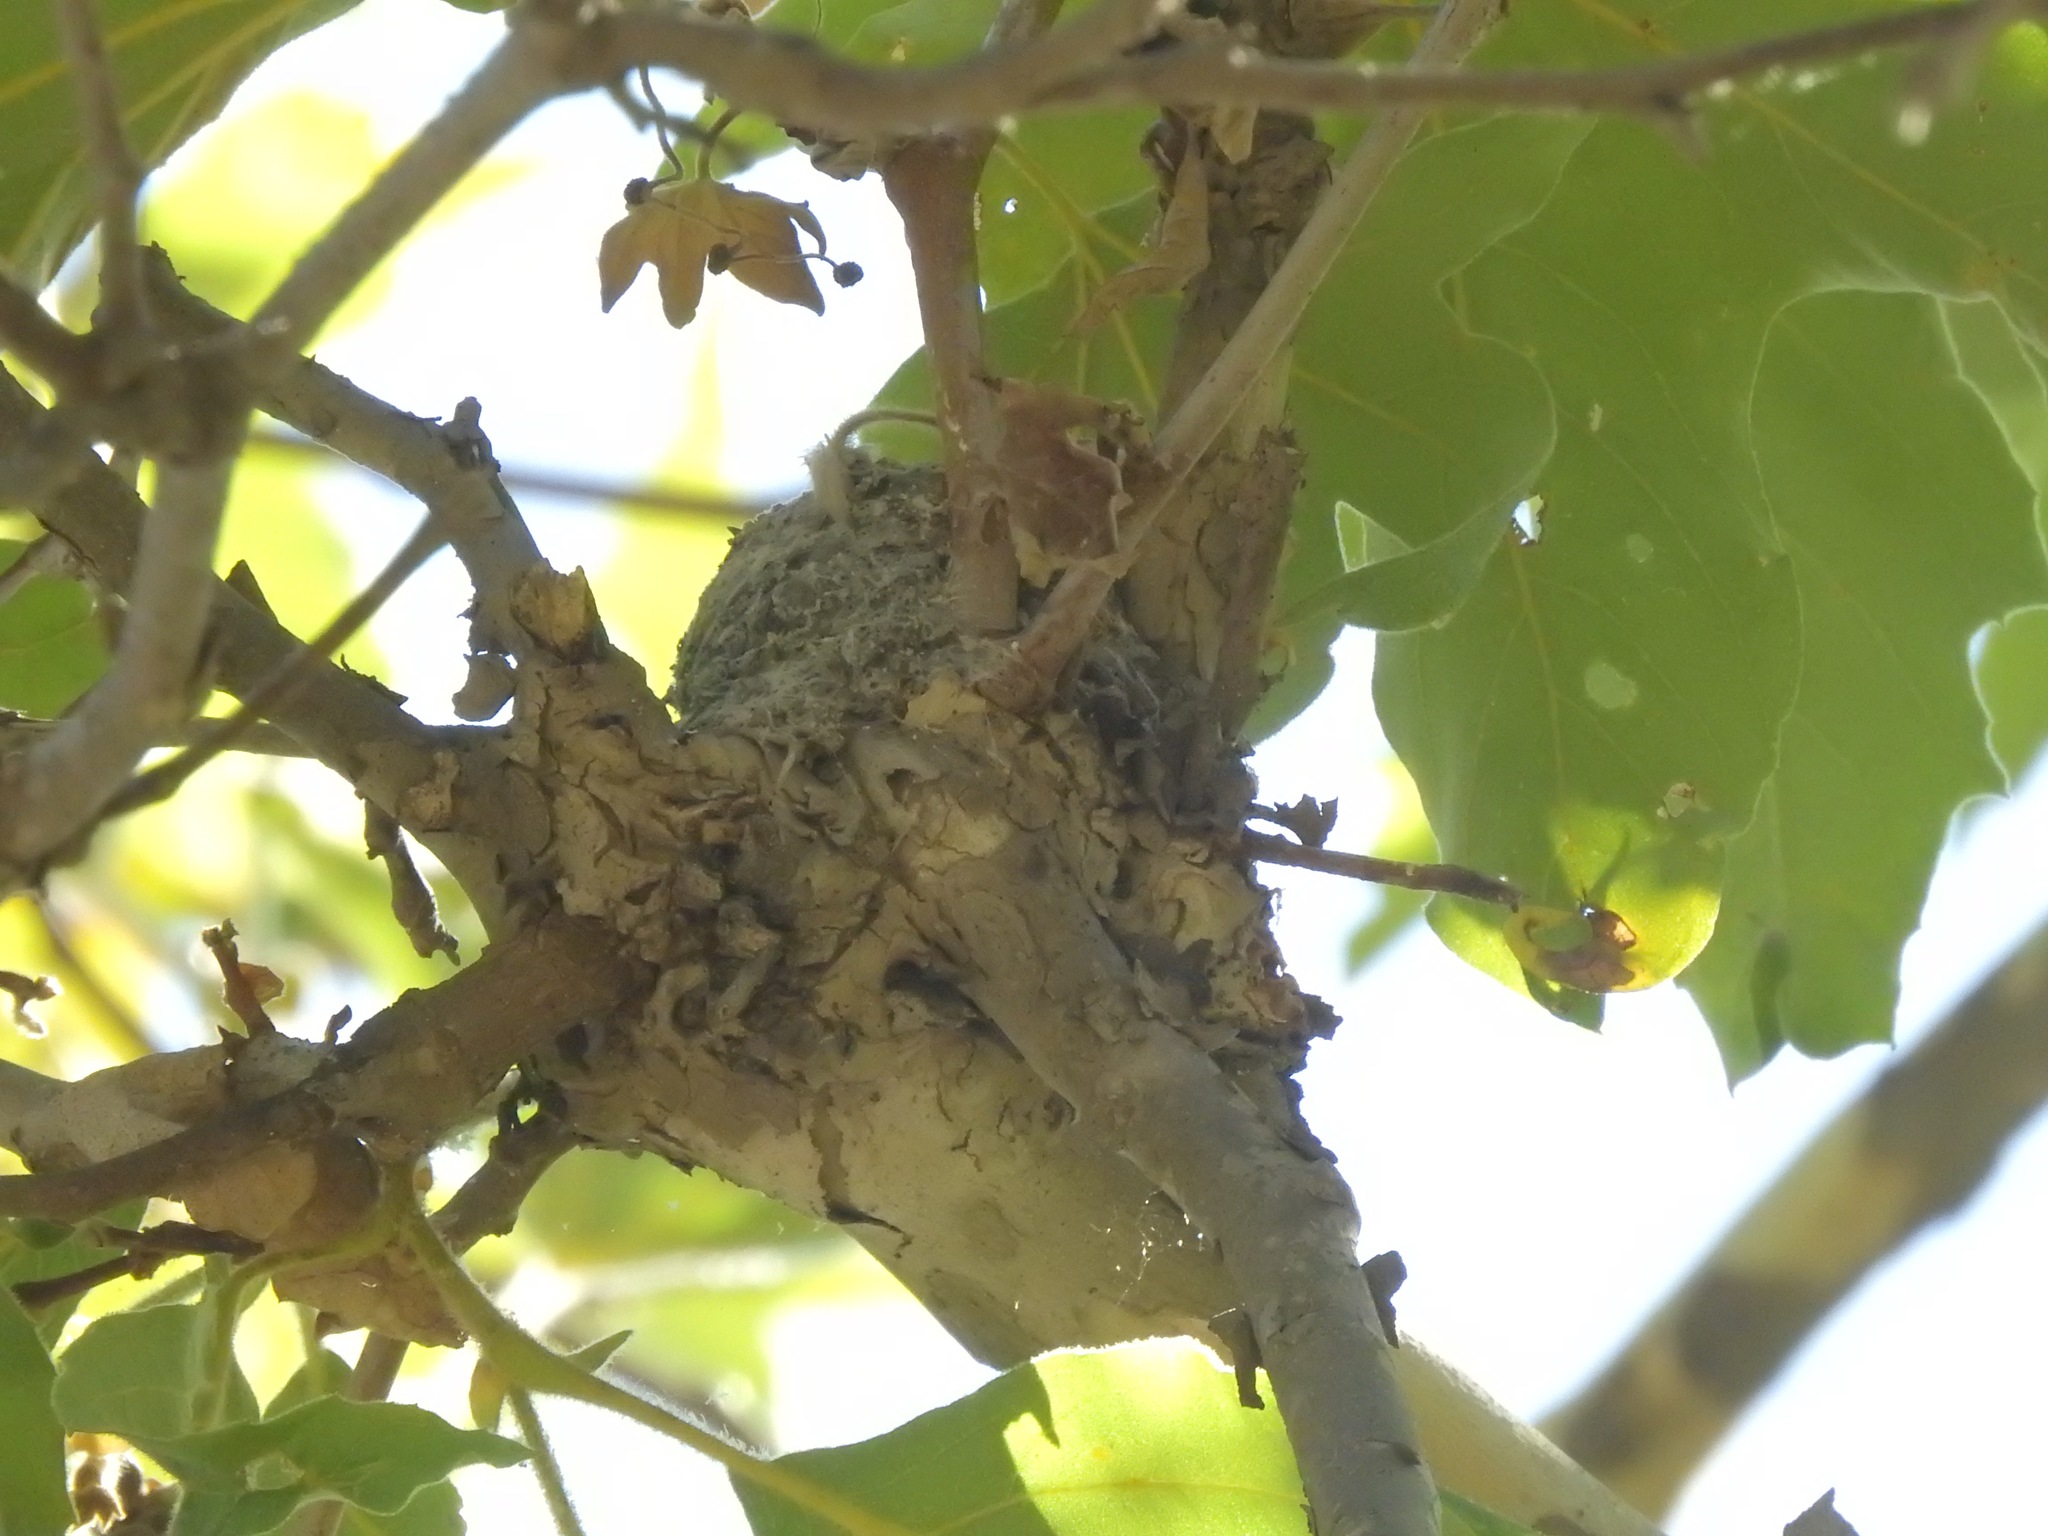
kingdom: Animalia
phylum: Chordata
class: Aves
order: Passeriformes
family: Polioptilidae
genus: Polioptila
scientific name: Polioptila caerulea
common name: Blue-gray gnatcatcher
